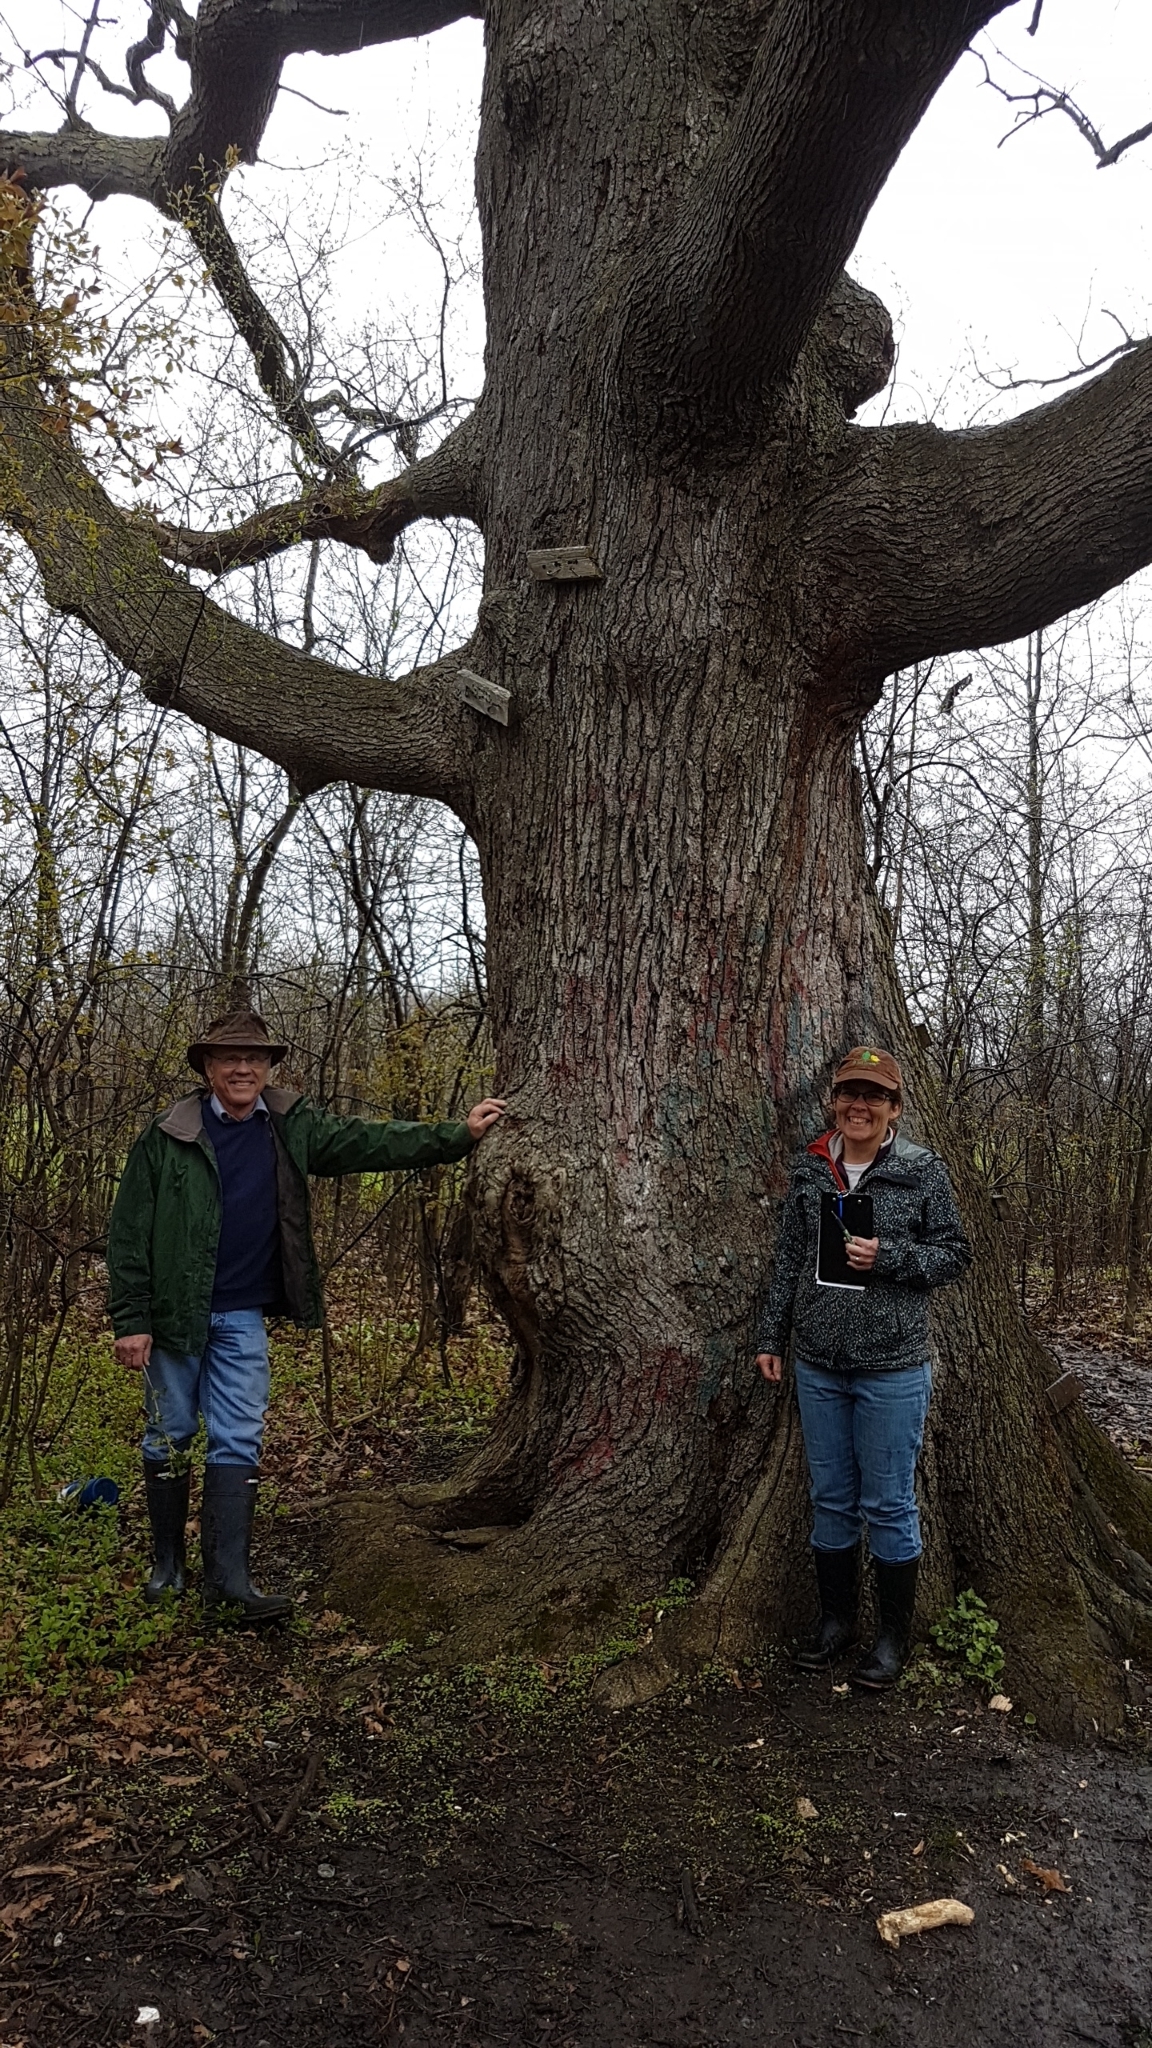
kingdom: Plantae
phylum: Tracheophyta
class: Magnoliopsida
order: Fagales
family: Fagaceae
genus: Quercus
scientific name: Quercus alba
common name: White oak
